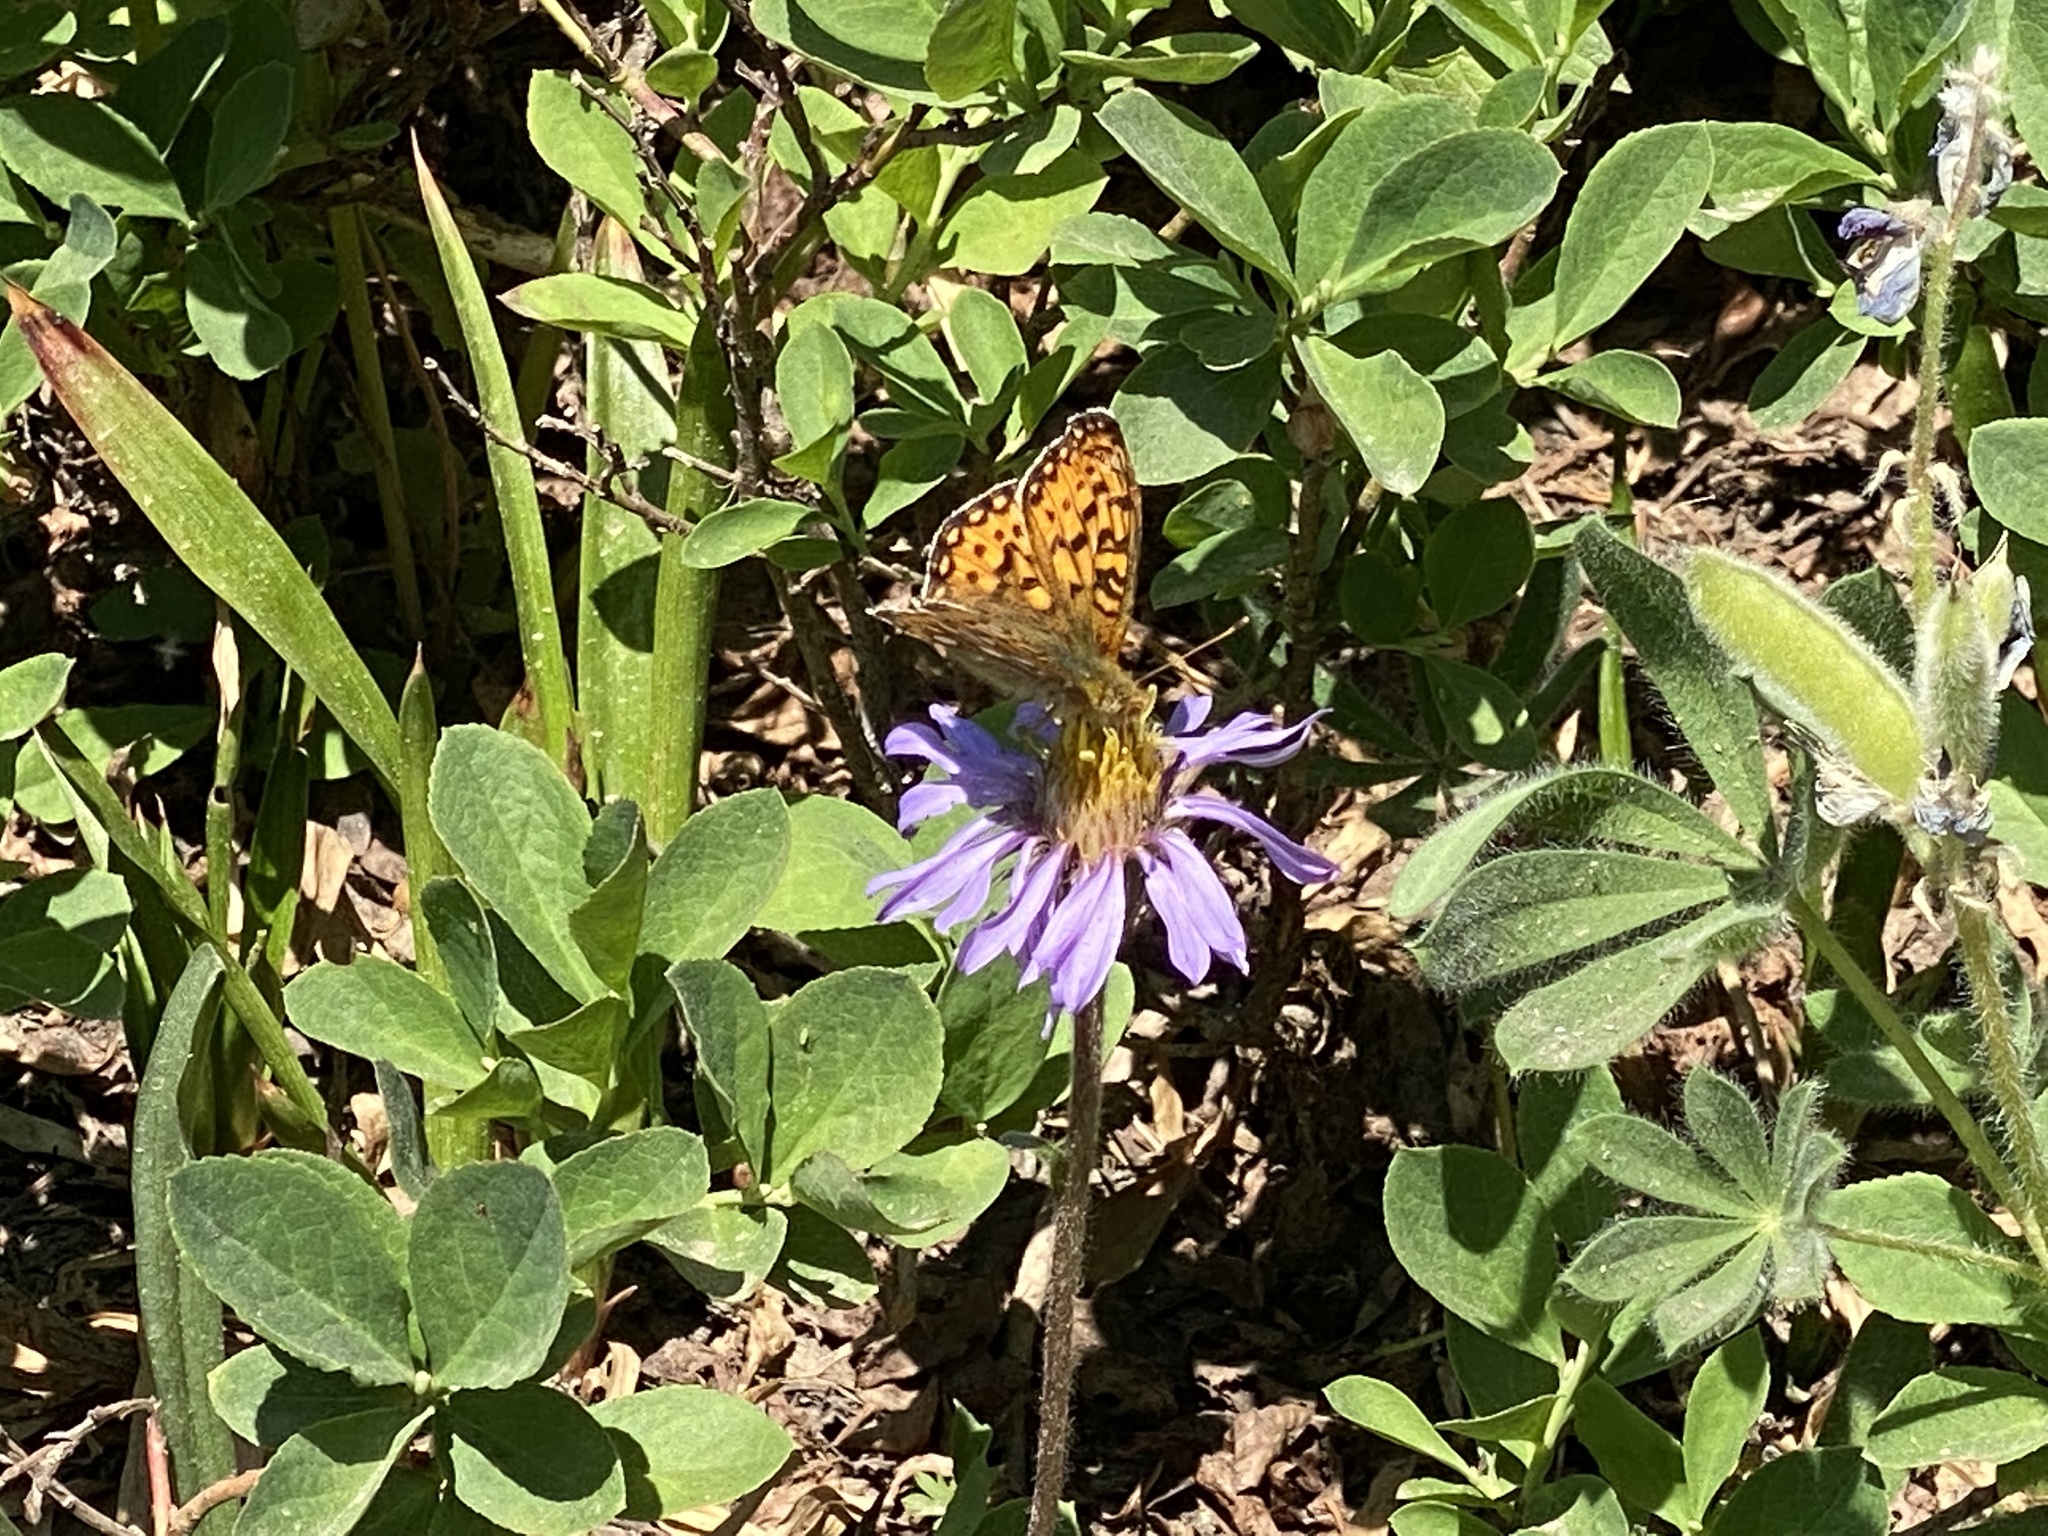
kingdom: Animalia
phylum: Arthropoda
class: Insecta
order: Lepidoptera
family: Nymphalidae
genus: Speyeria
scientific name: Speyeria mormonia
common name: Mormon fritillary
